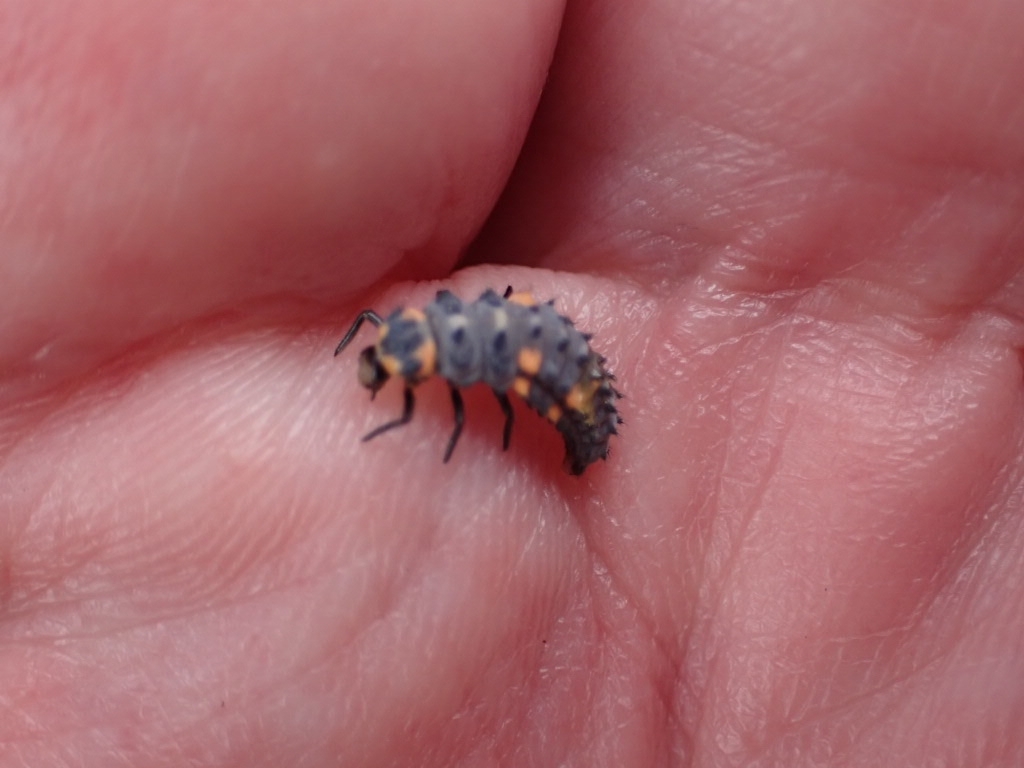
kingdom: Animalia
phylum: Arthropoda
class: Insecta
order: Coleoptera
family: Coccinellidae
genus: Coccinella
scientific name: Coccinella septempunctata
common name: Sevenspotted lady beetle
